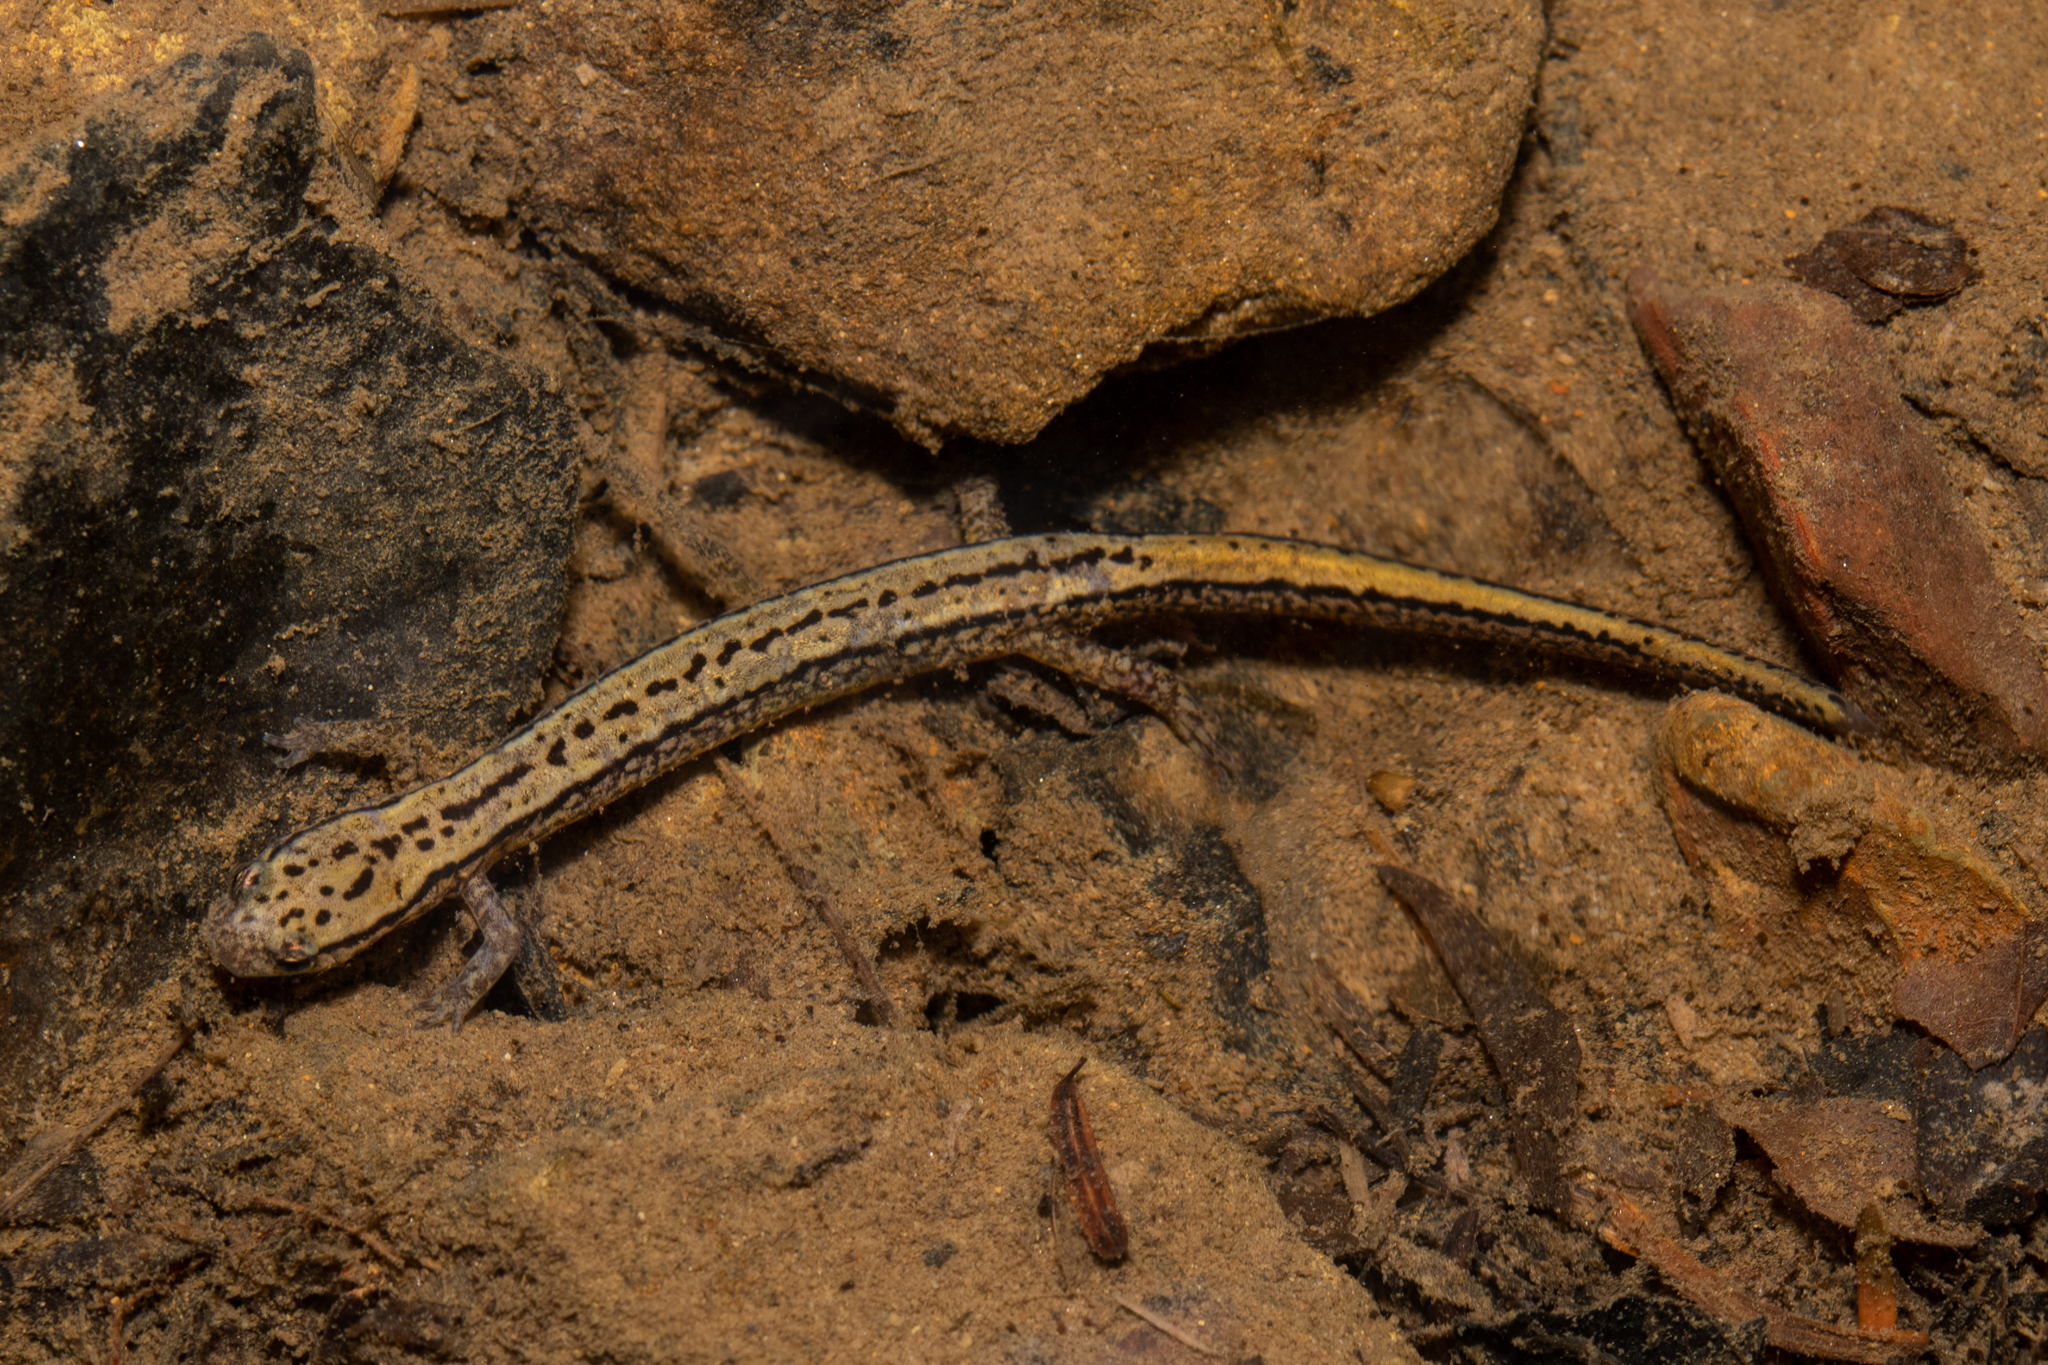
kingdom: Animalia
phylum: Chordata
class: Amphibia
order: Caudata
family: Plethodontidae
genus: Eurycea
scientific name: Eurycea bislineata
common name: Northern two-lined salamander
